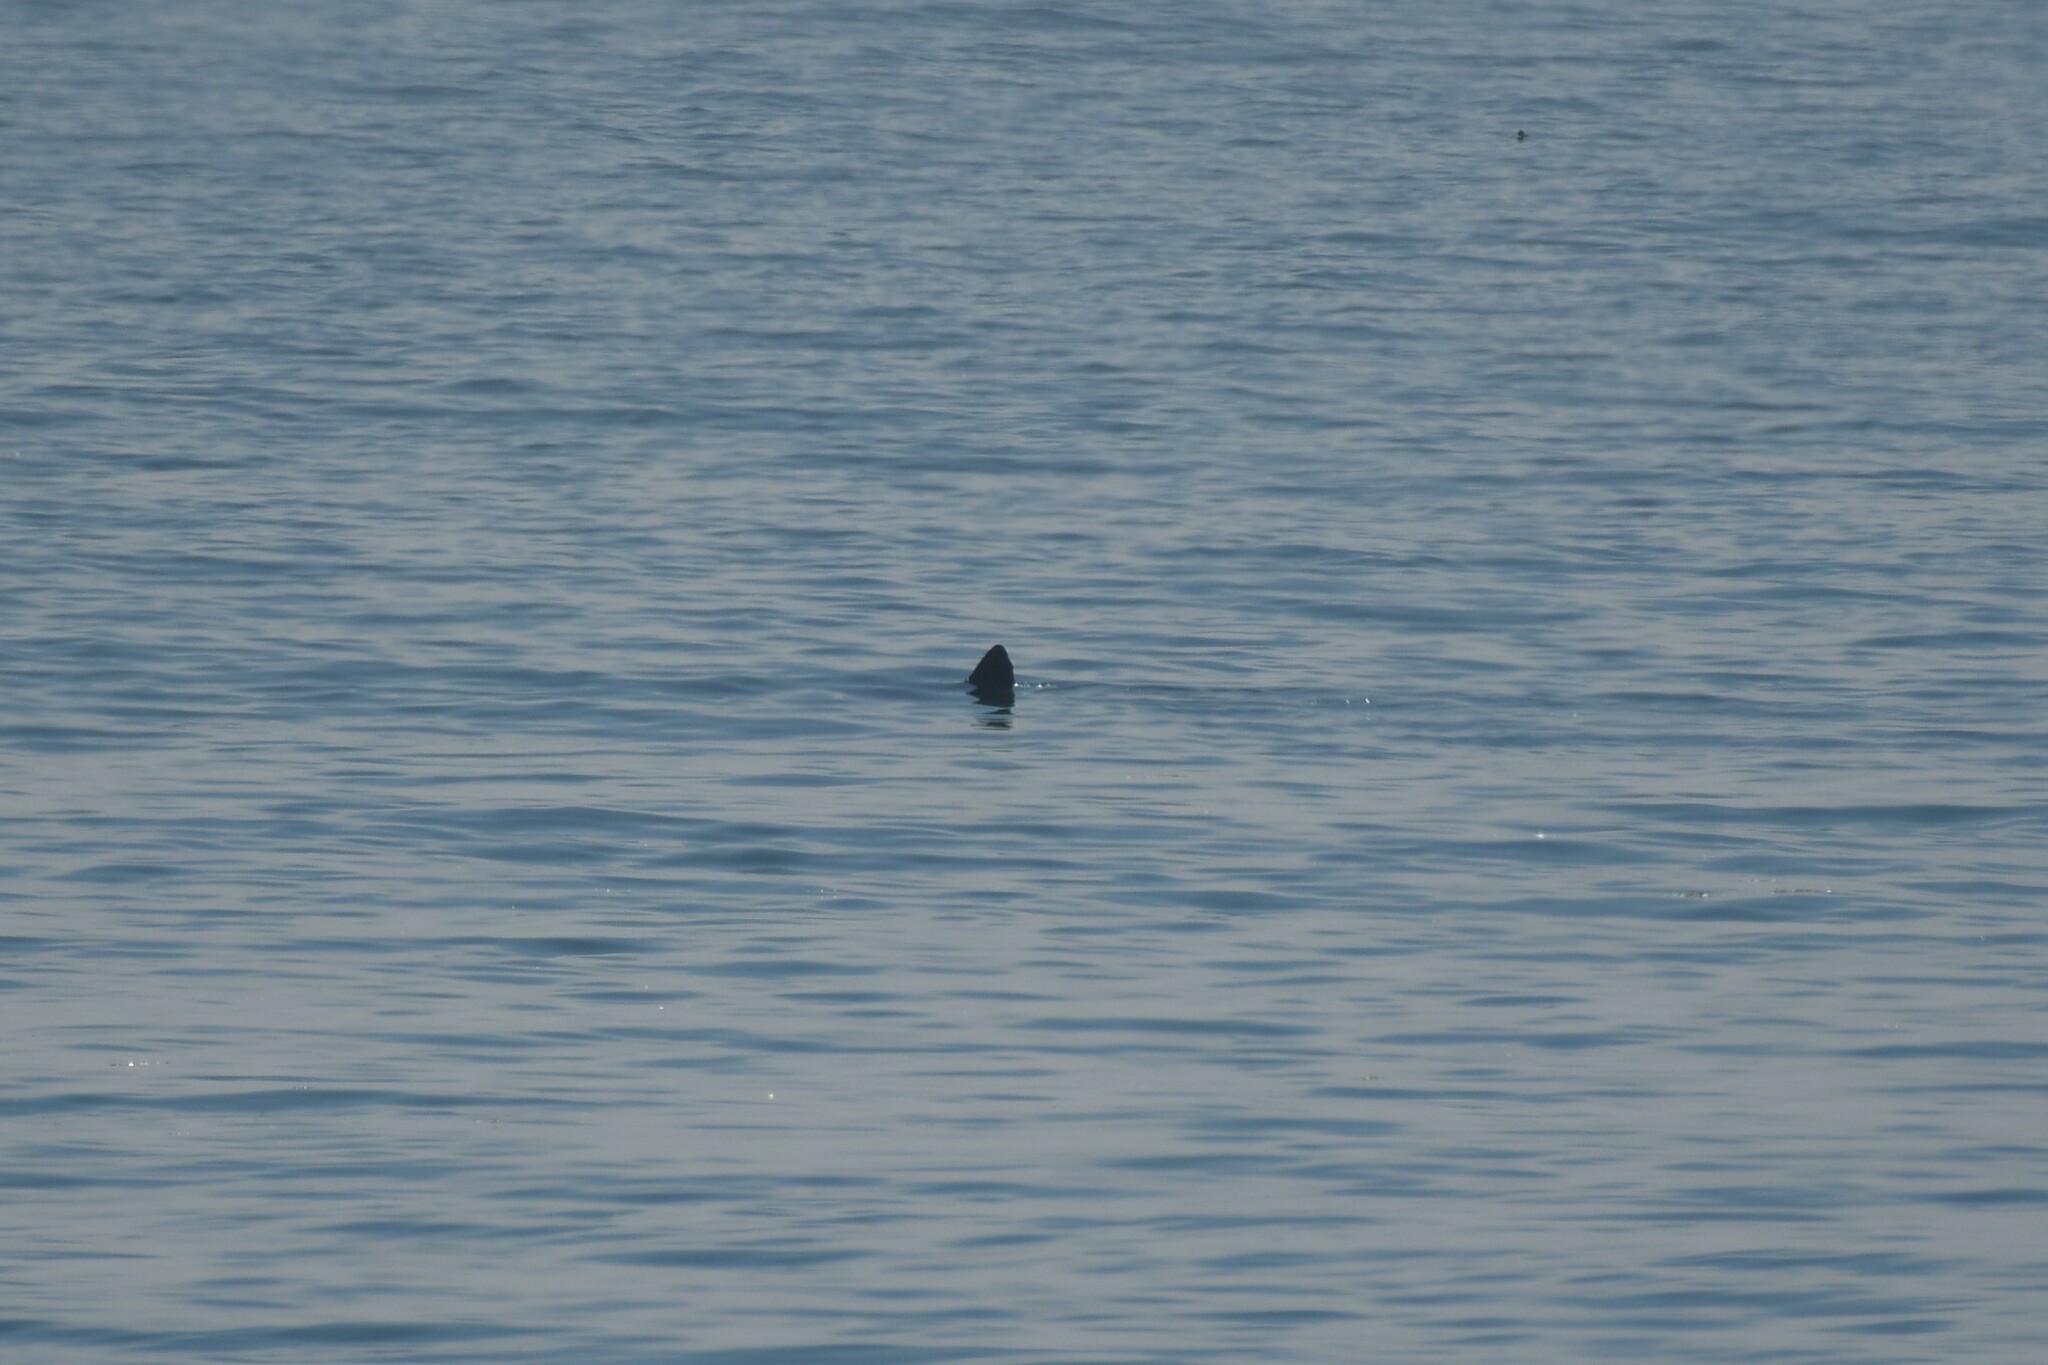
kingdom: Animalia
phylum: Chordata
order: Tetraodontiformes
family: Molidae
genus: Mola
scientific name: Mola mola
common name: Ocean sunfish
